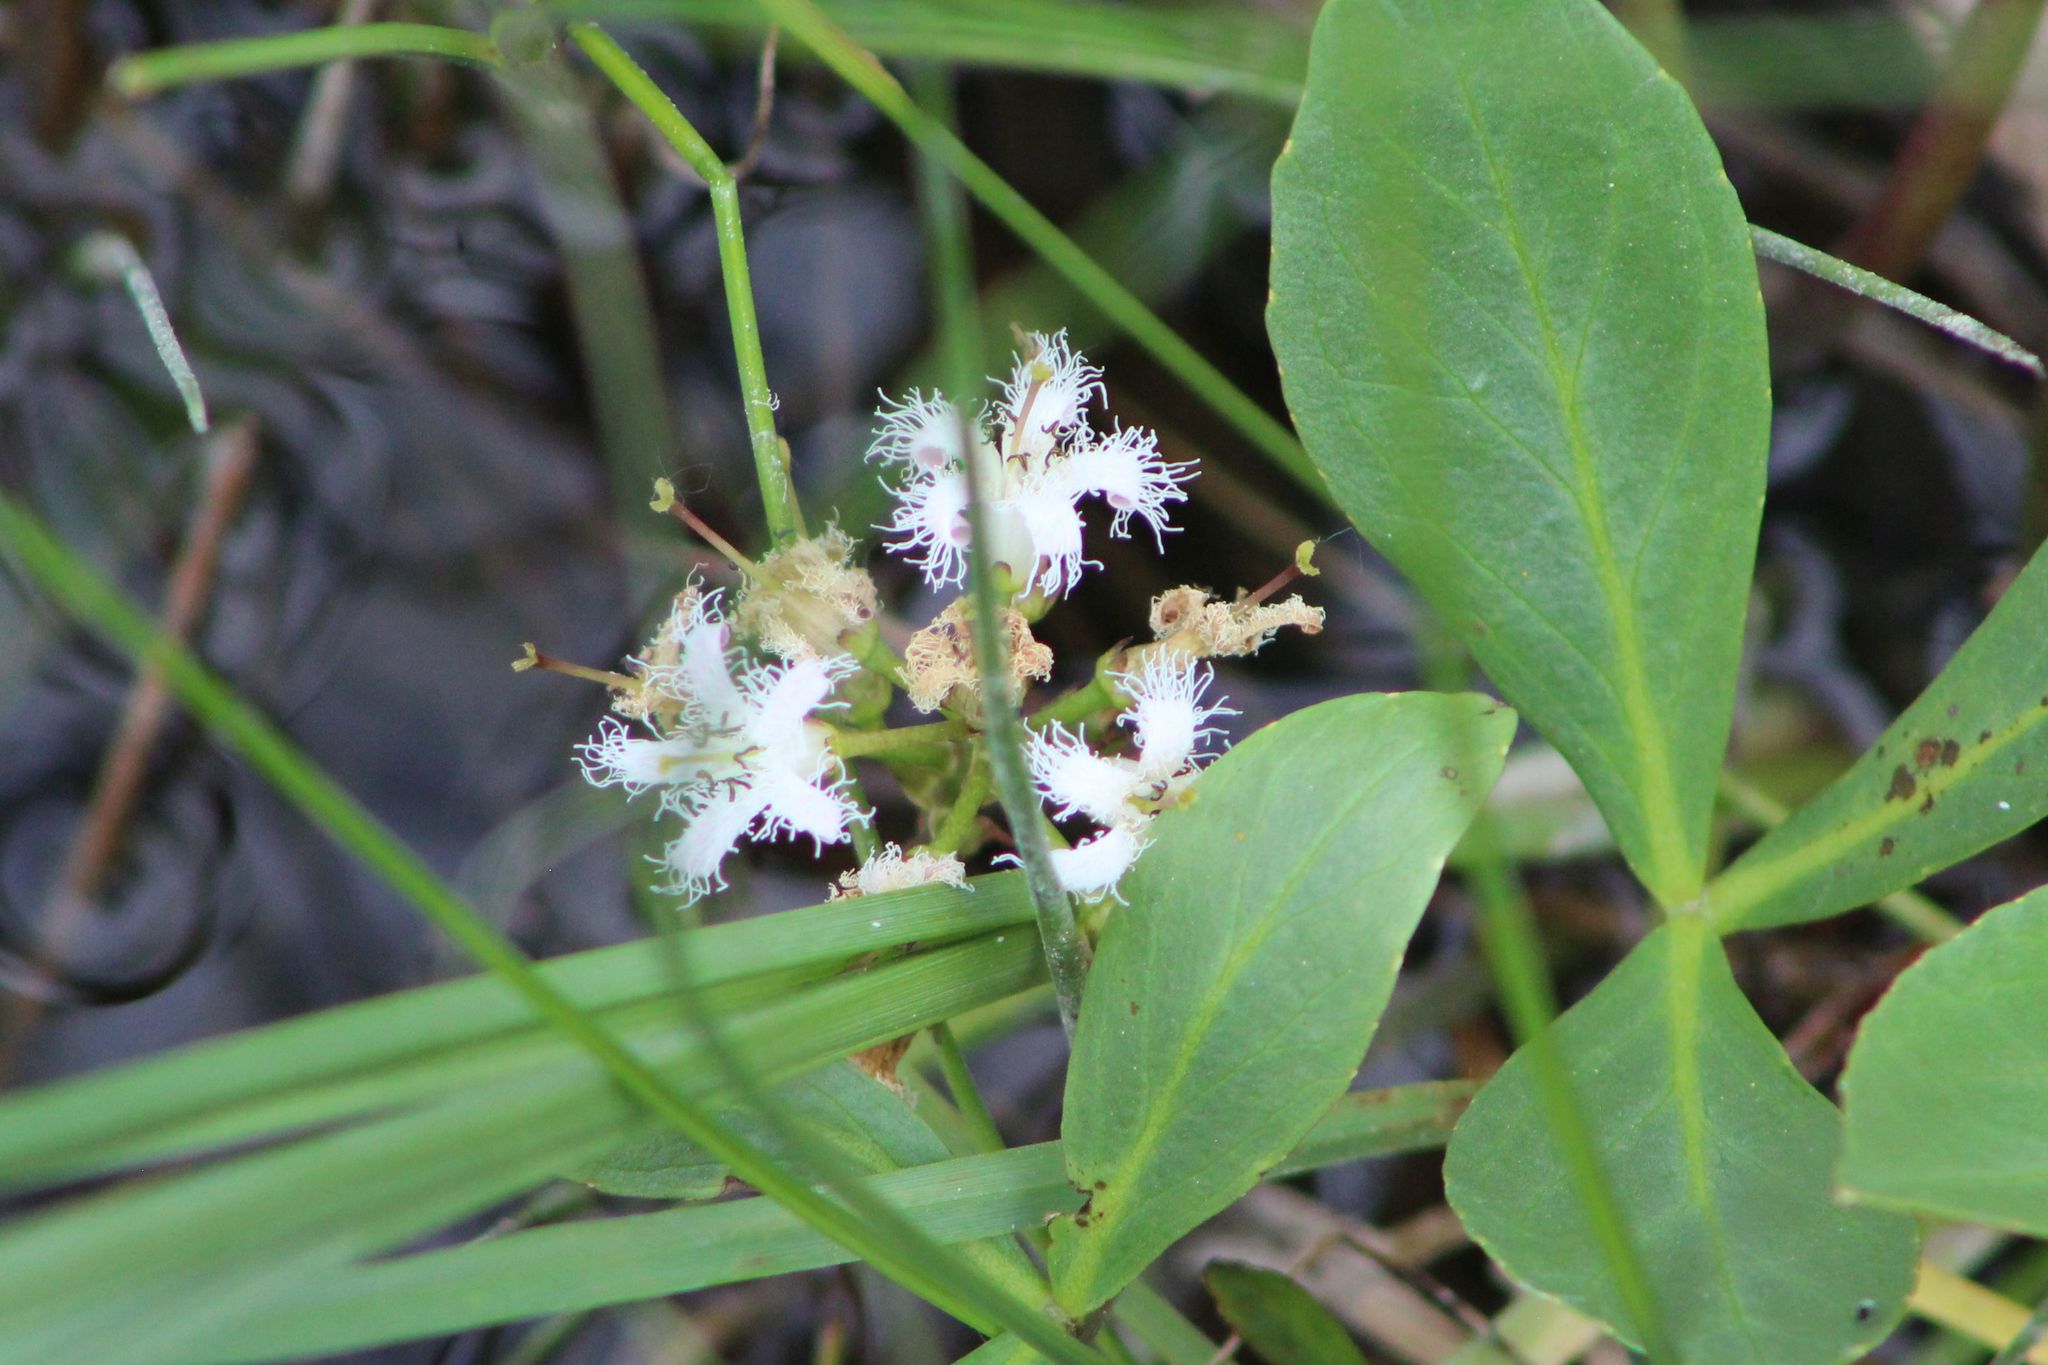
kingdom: Plantae
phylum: Tracheophyta
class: Magnoliopsida
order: Asterales
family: Menyanthaceae
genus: Menyanthes
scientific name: Menyanthes trifoliata
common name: Bogbean
